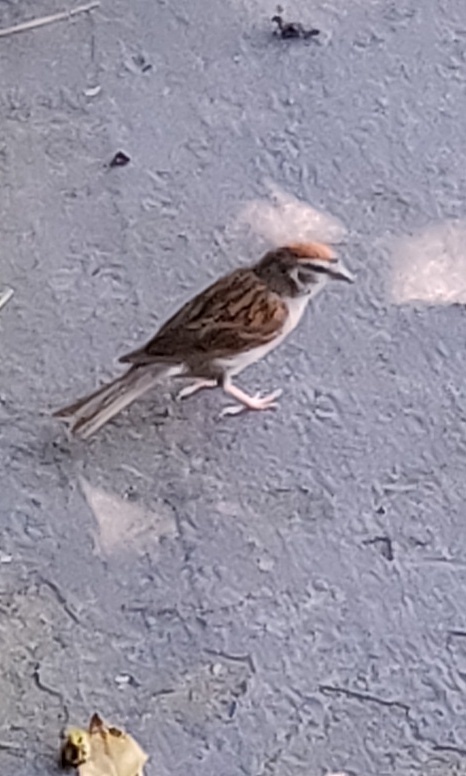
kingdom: Animalia
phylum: Chordata
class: Aves
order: Passeriformes
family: Passerellidae
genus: Spizella
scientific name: Spizella passerina
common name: Chipping sparrow
